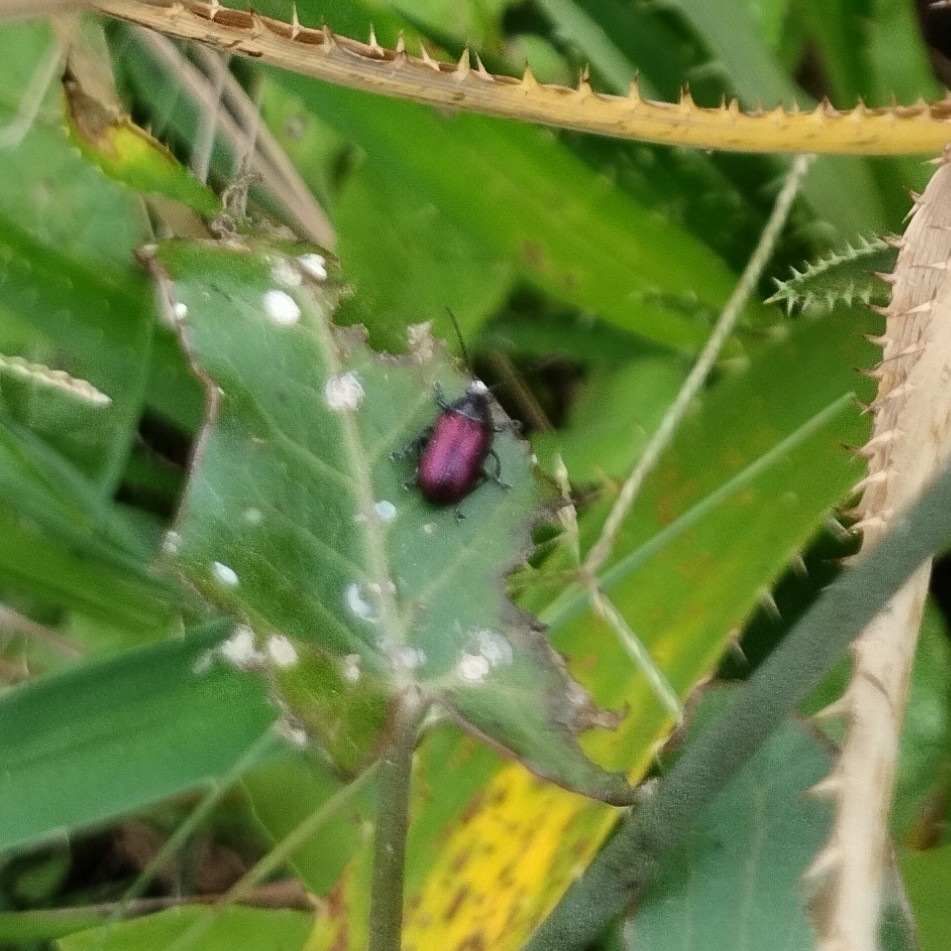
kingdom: Animalia
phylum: Arthropoda
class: Insecta
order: Coleoptera
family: Chrysomelidae
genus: Freudeita
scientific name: Freudeita
